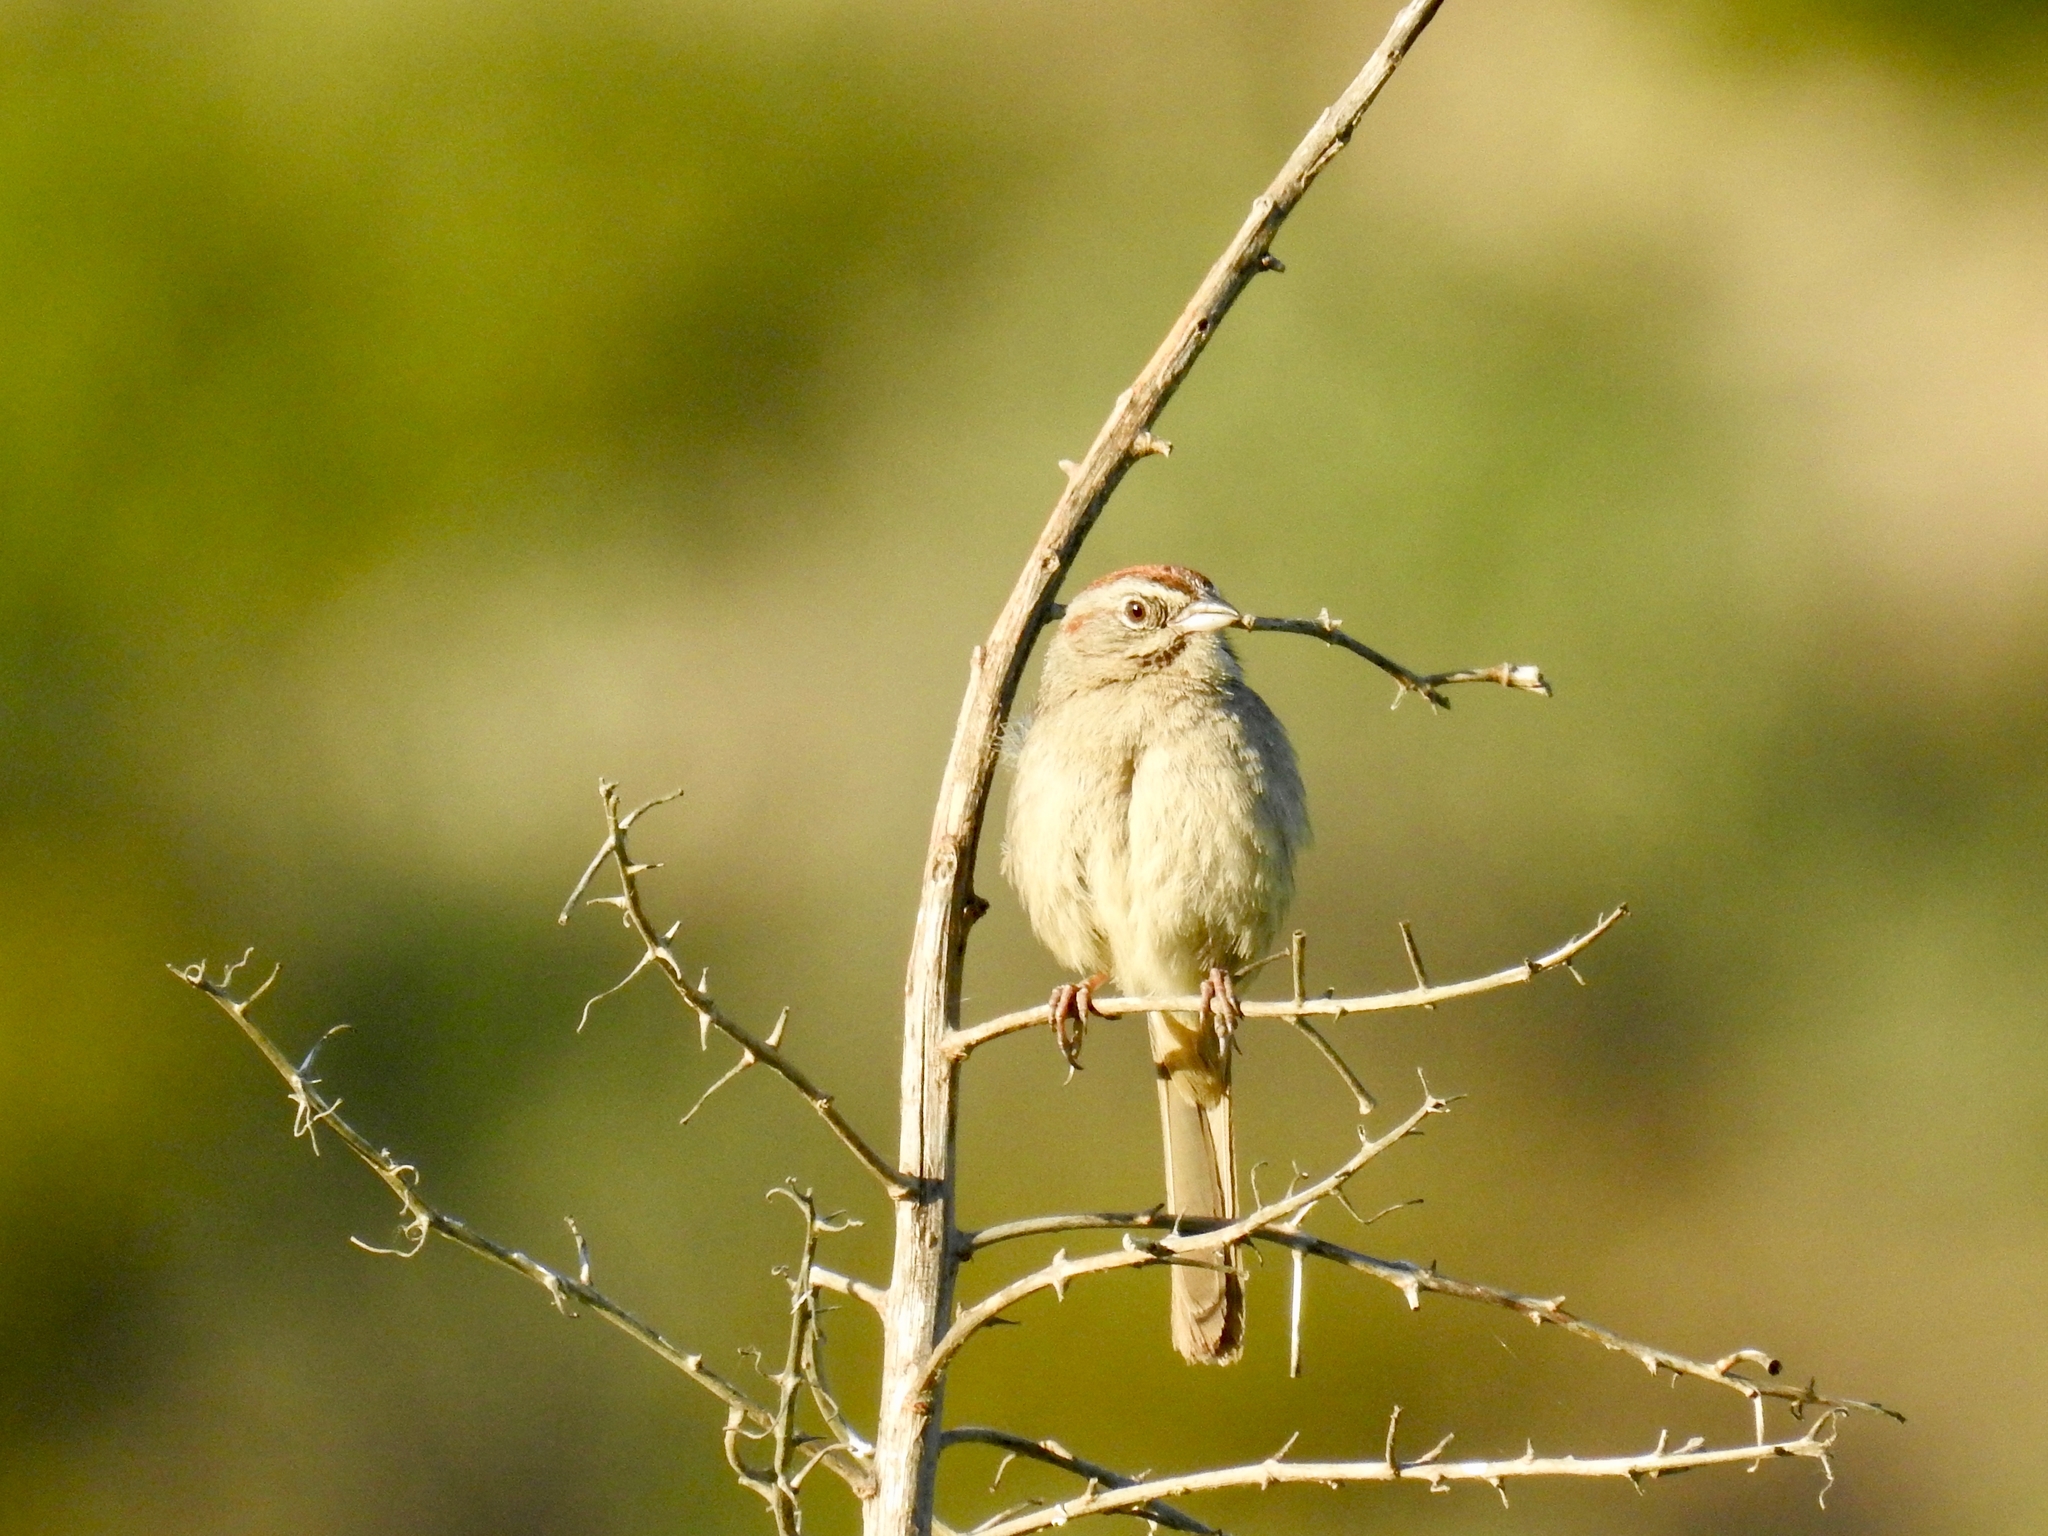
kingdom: Animalia
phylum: Chordata
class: Aves
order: Passeriformes
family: Passerellidae
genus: Aimophila
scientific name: Aimophila ruficeps
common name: Rufous-crowned sparrow
